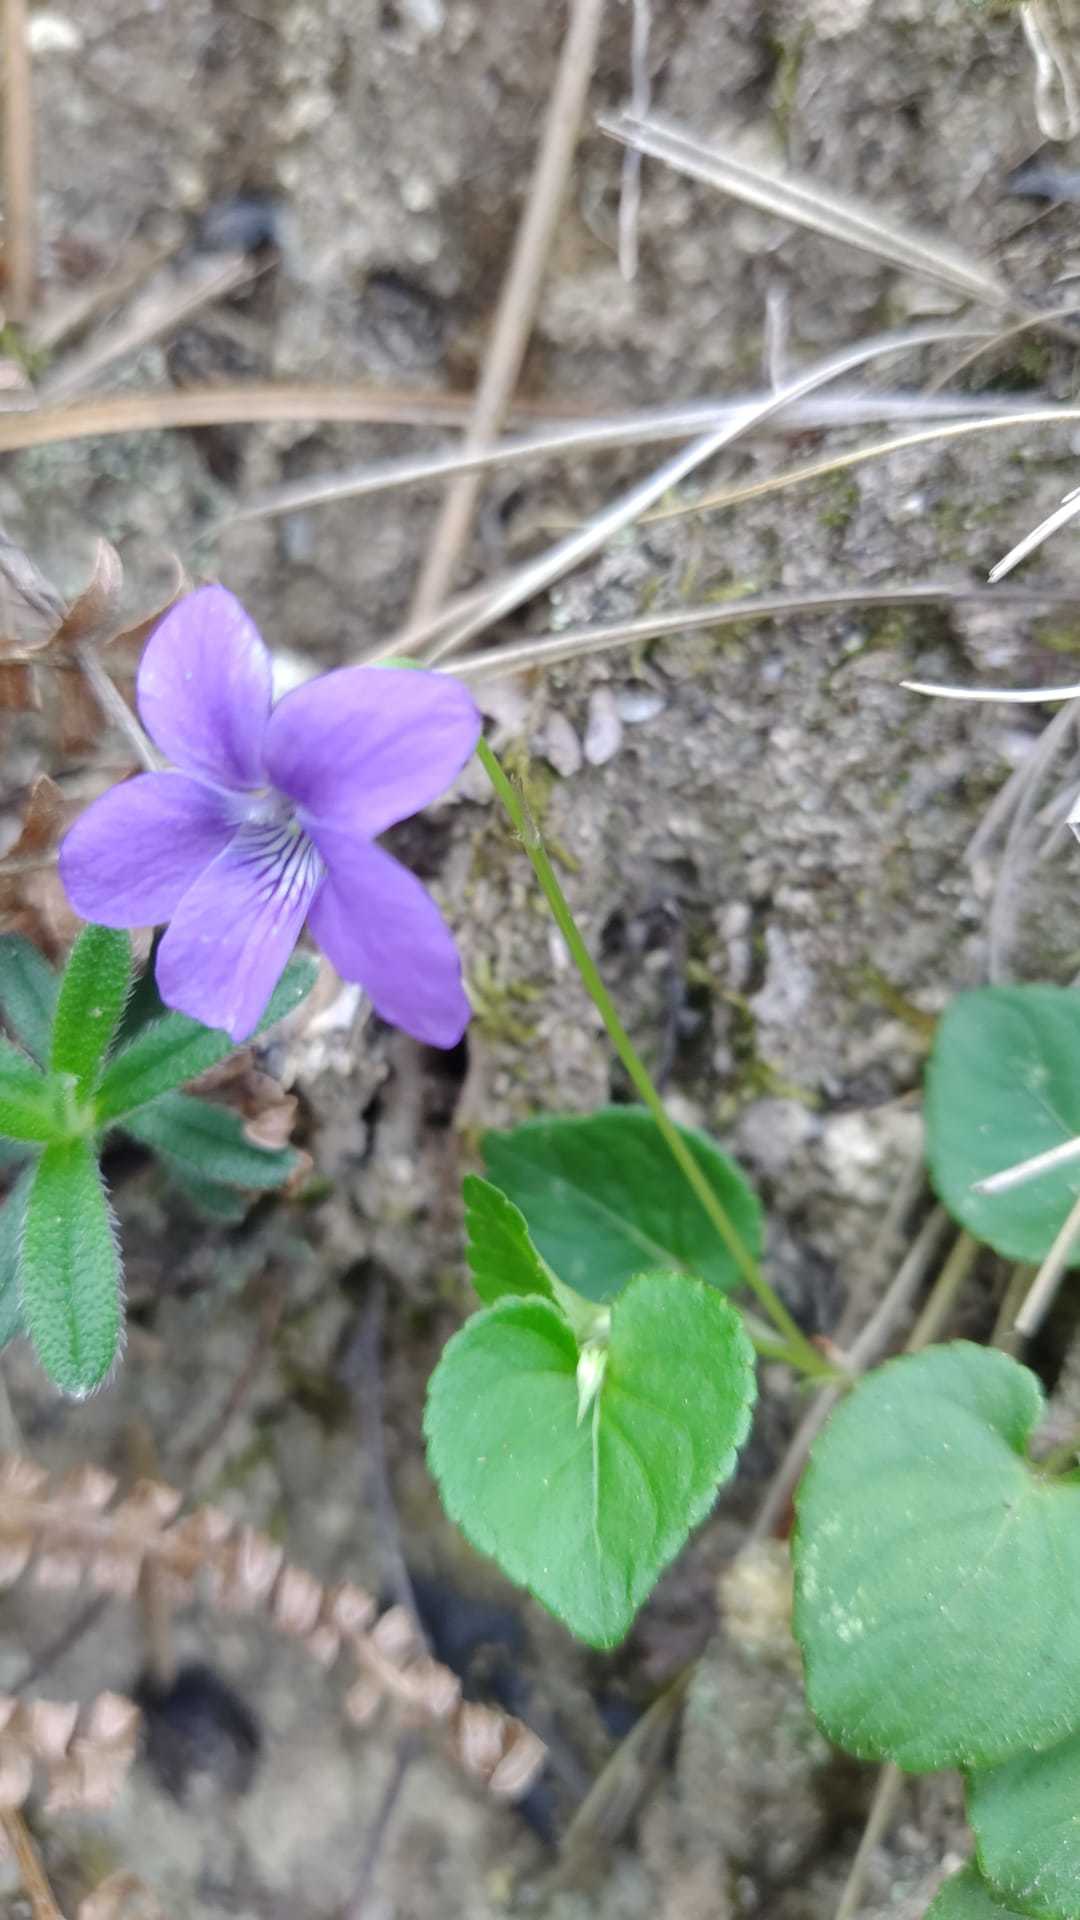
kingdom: Plantae
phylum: Tracheophyta
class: Magnoliopsida
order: Malpighiales
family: Violaceae
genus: Viola
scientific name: Viola riviniana
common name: Common dog-violet
